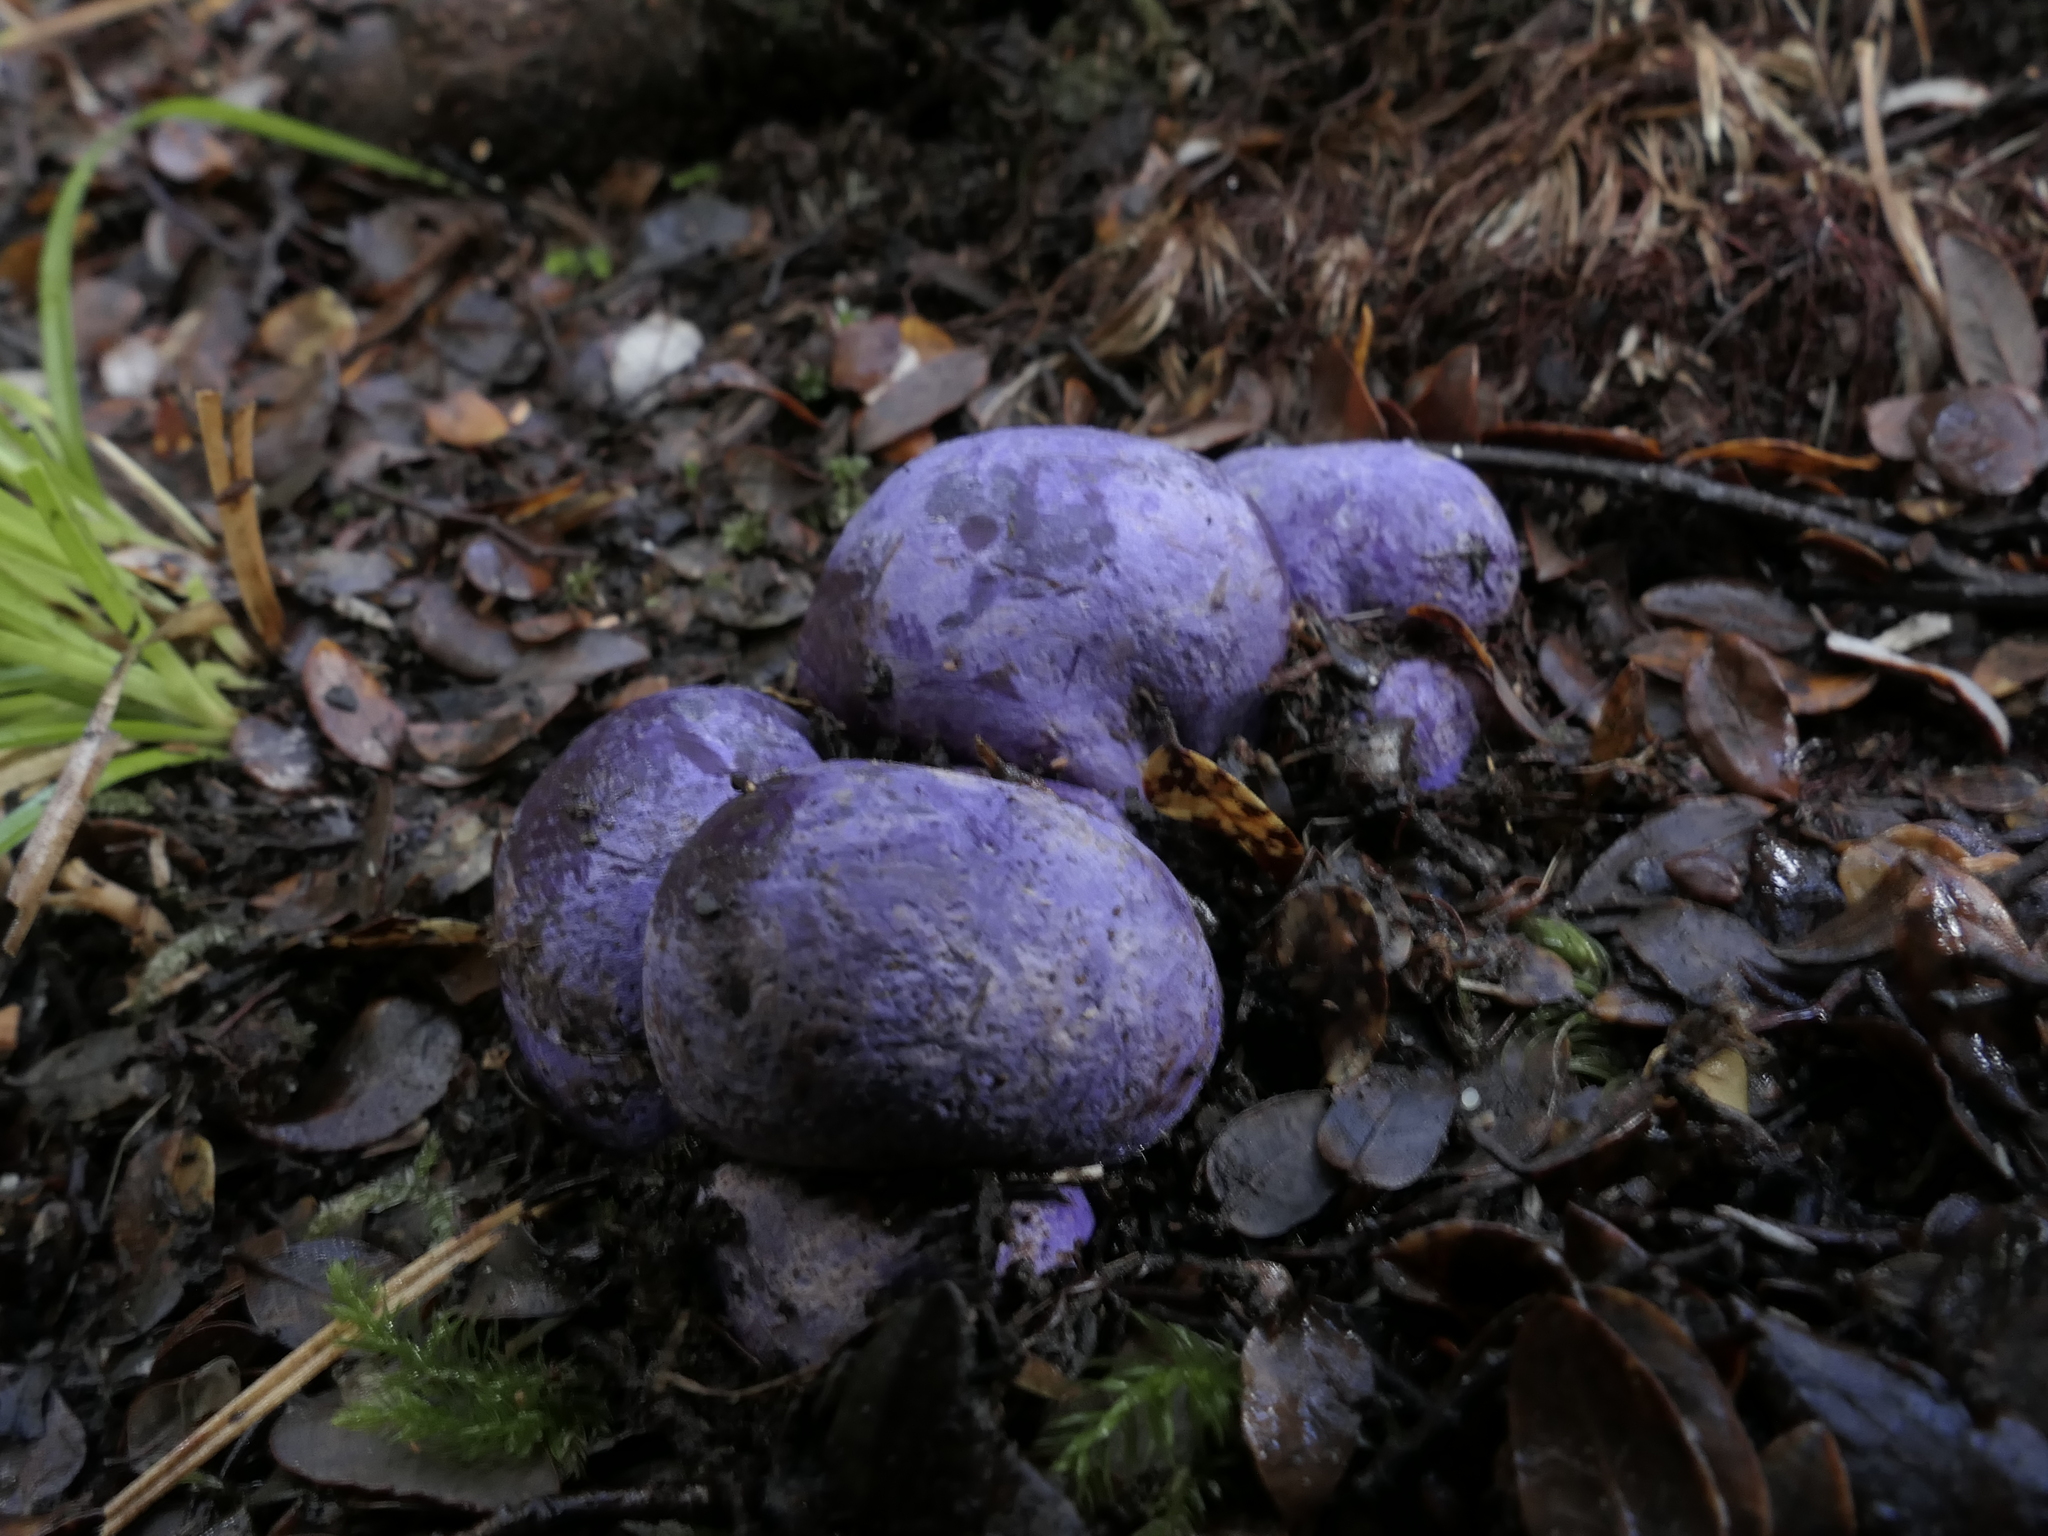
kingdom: Fungi
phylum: Basidiomycota
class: Agaricomycetes
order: Hysterangiales
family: Gallaceaceae
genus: Gallacea
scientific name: Gallacea scleroderma
